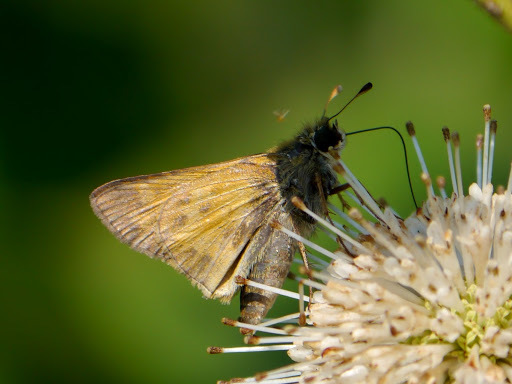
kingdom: Animalia
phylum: Arthropoda
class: Insecta
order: Lepidoptera
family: Hesperiidae
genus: Atalopedes
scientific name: Atalopedes
